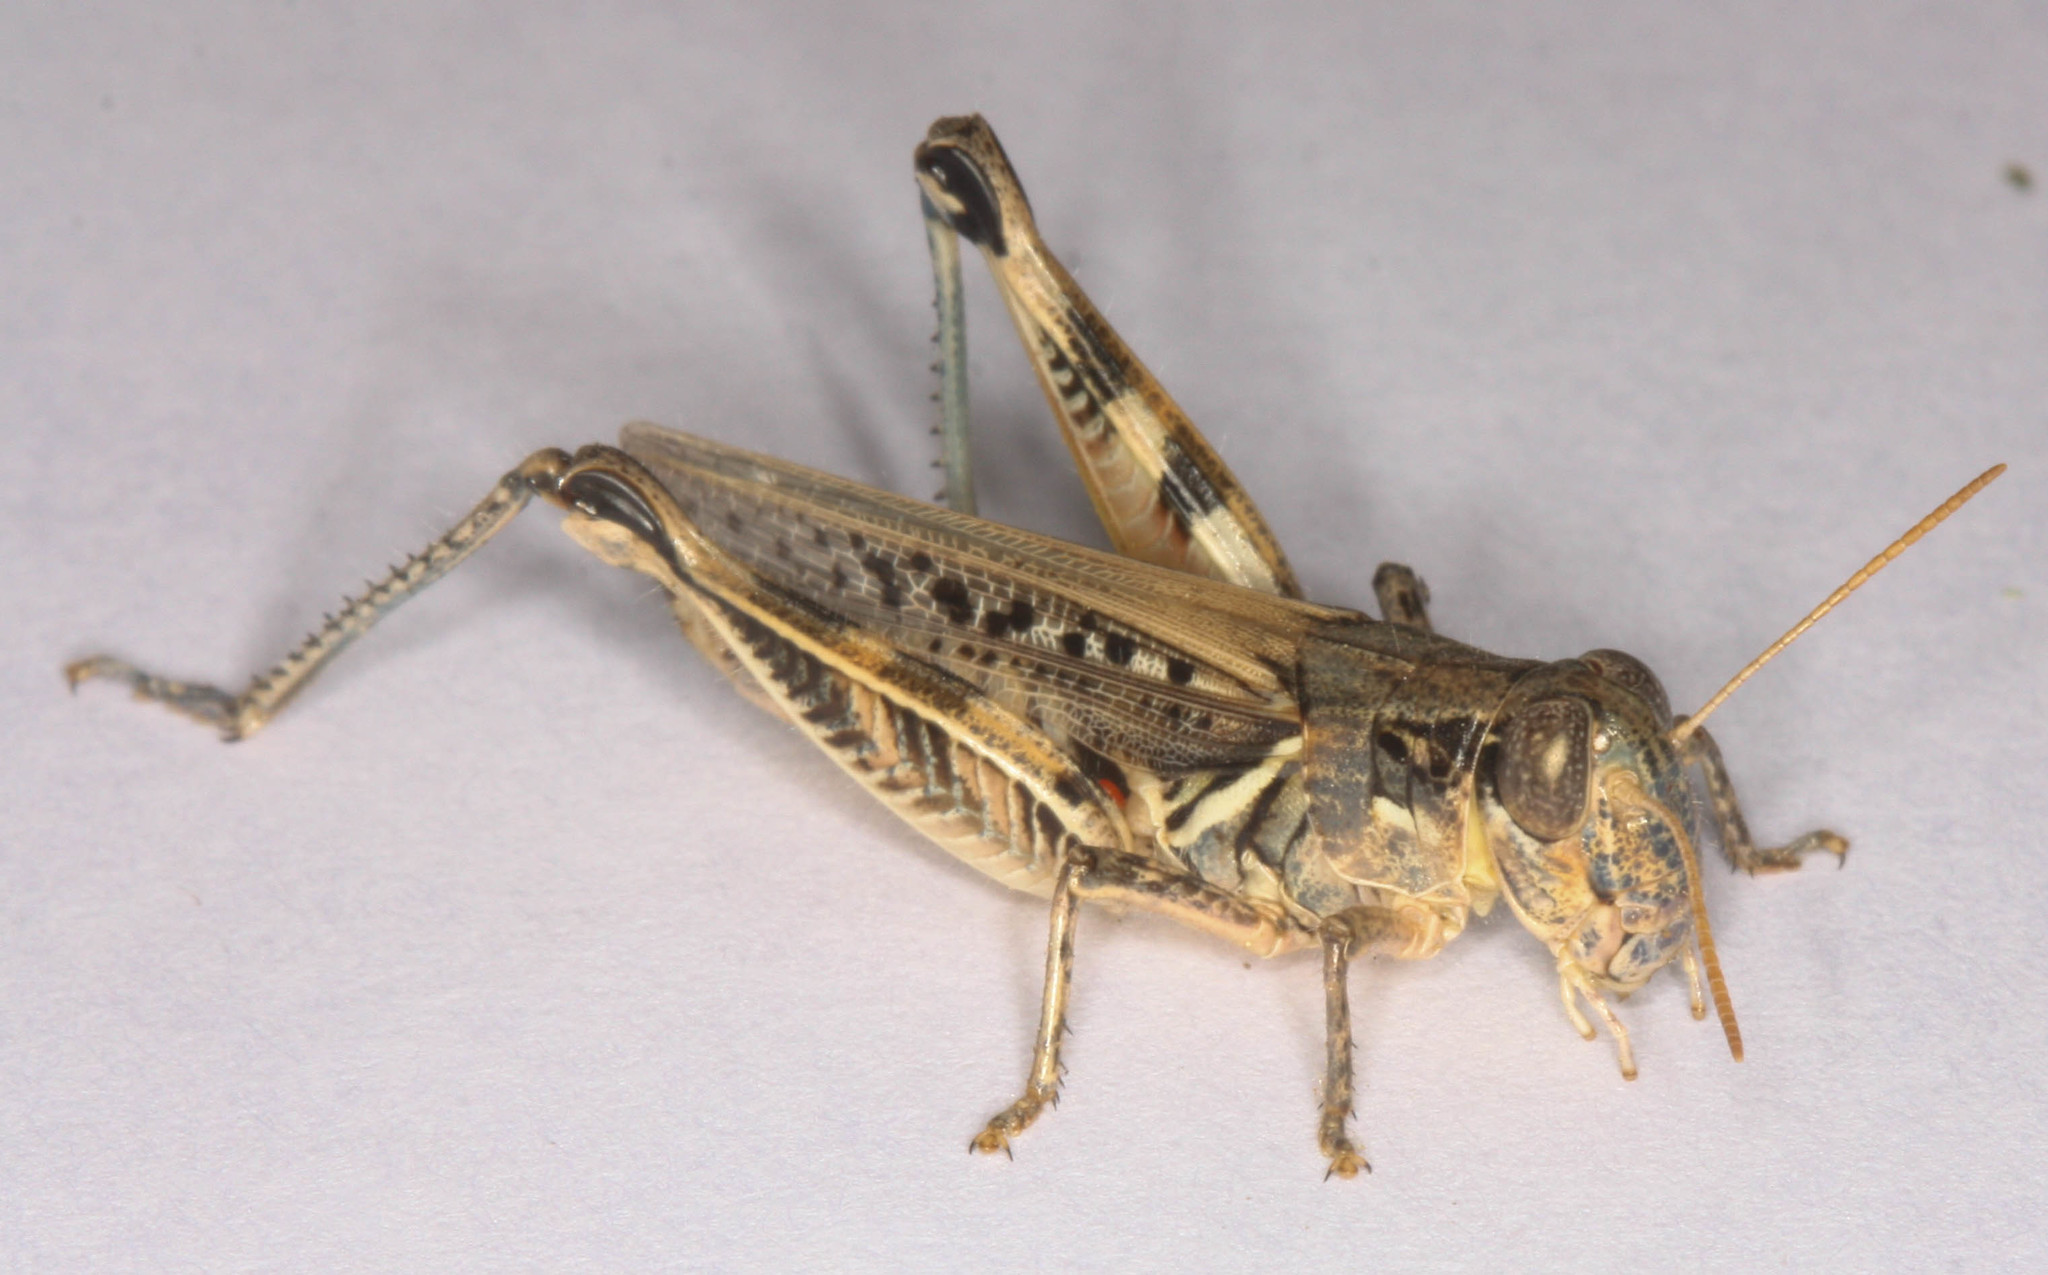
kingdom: Animalia
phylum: Arthropoda
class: Insecta
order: Orthoptera
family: Acrididae
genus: Melanoplus
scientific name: Melanoplus devastator
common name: Devastating grasshopper
